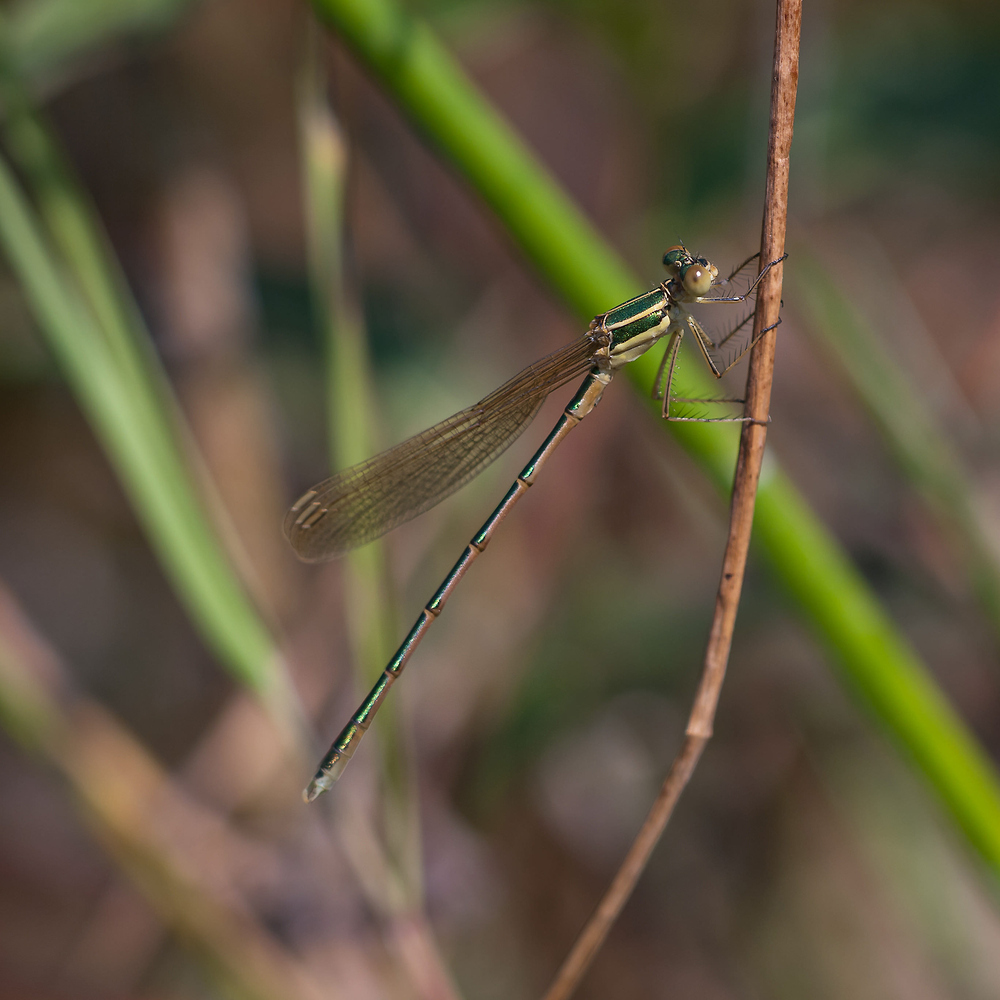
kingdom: Animalia
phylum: Arthropoda
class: Insecta
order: Odonata
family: Lestidae
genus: Lestes
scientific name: Lestes barbarus
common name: Migrant spreadwing
